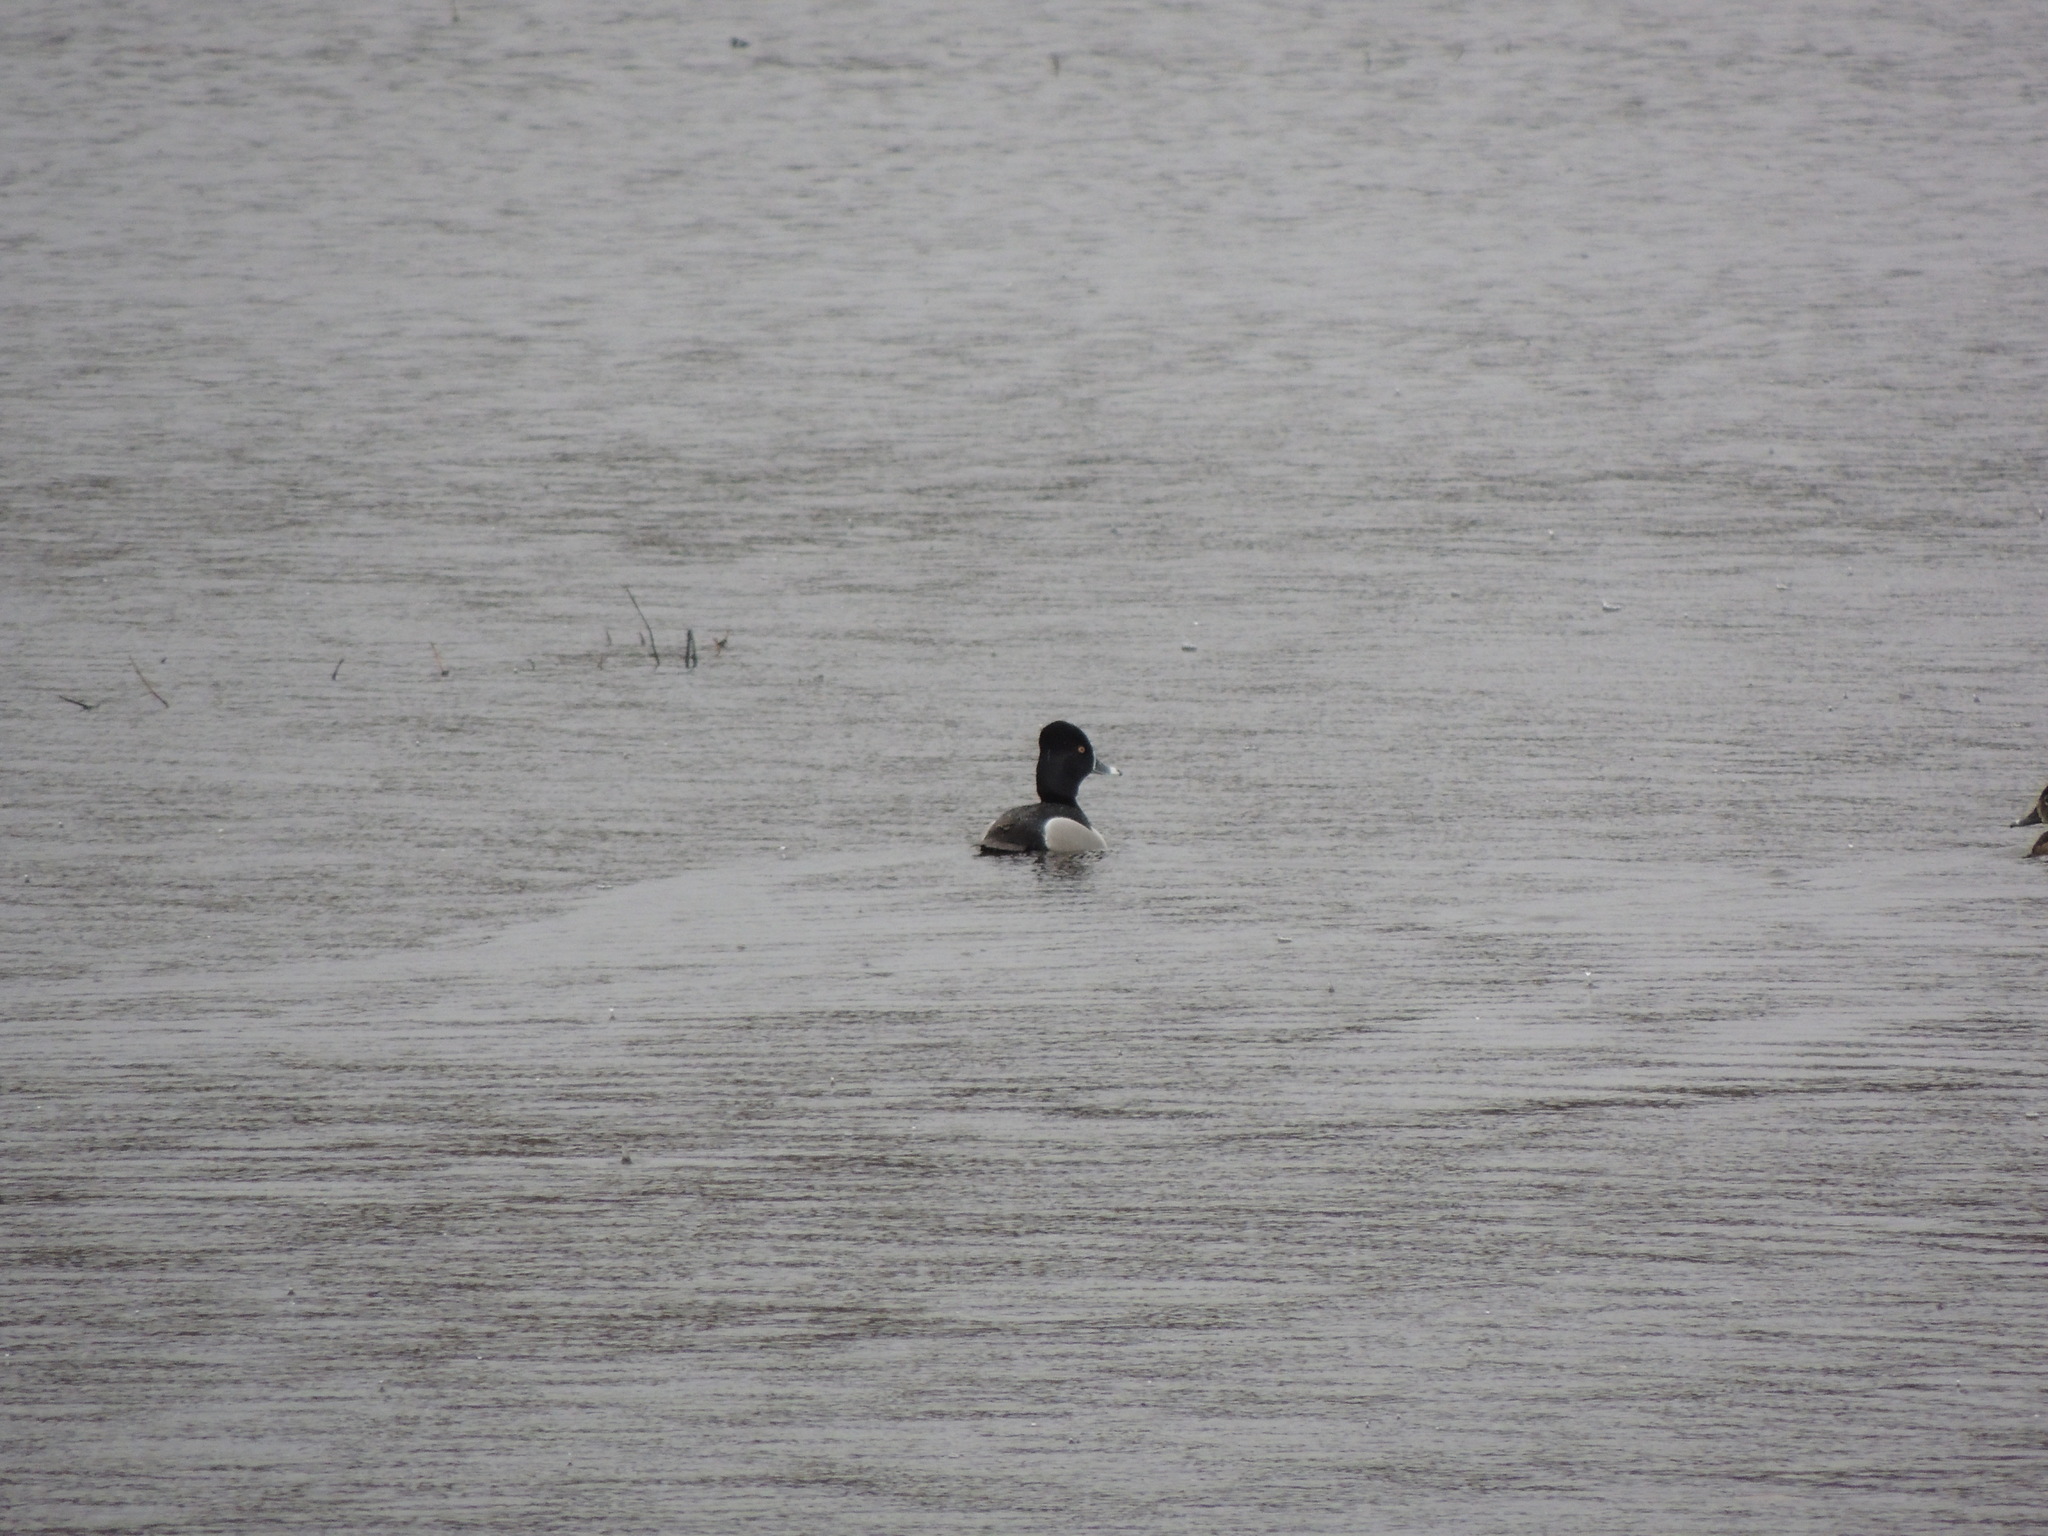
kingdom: Animalia
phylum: Chordata
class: Aves
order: Anseriformes
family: Anatidae
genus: Aythya
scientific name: Aythya collaris
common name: Ring-necked duck
